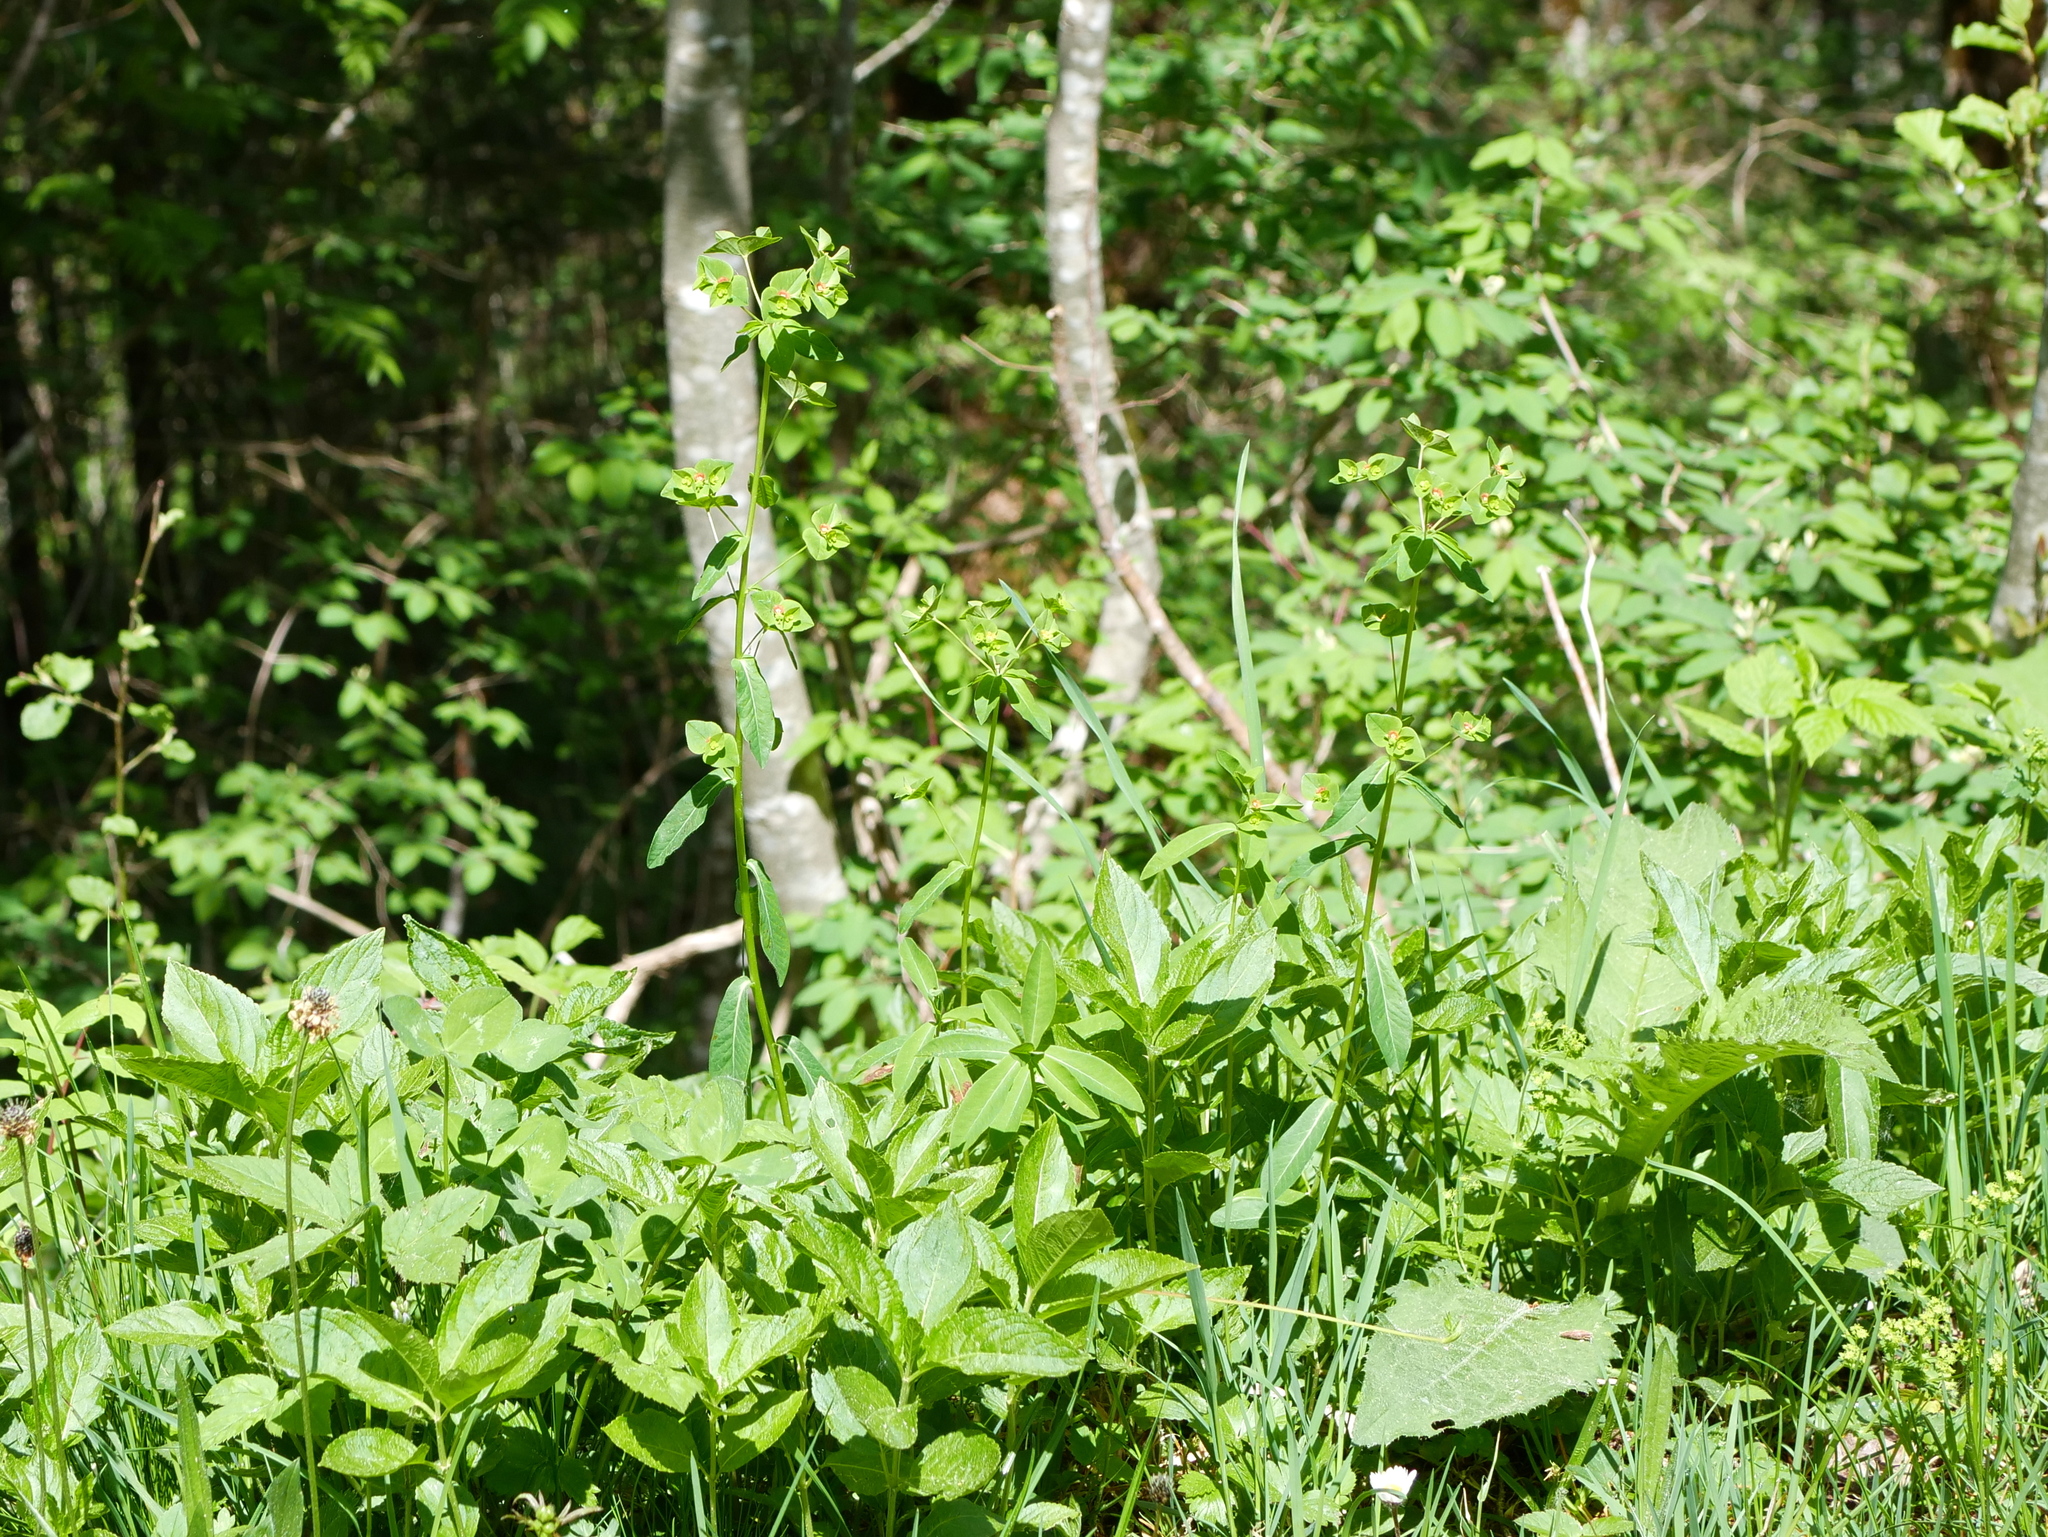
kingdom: Plantae
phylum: Tracheophyta
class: Magnoliopsida
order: Malpighiales
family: Euphorbiaceae
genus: Euphorbia
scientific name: Euphorbia dulcis
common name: Sweet spurge
